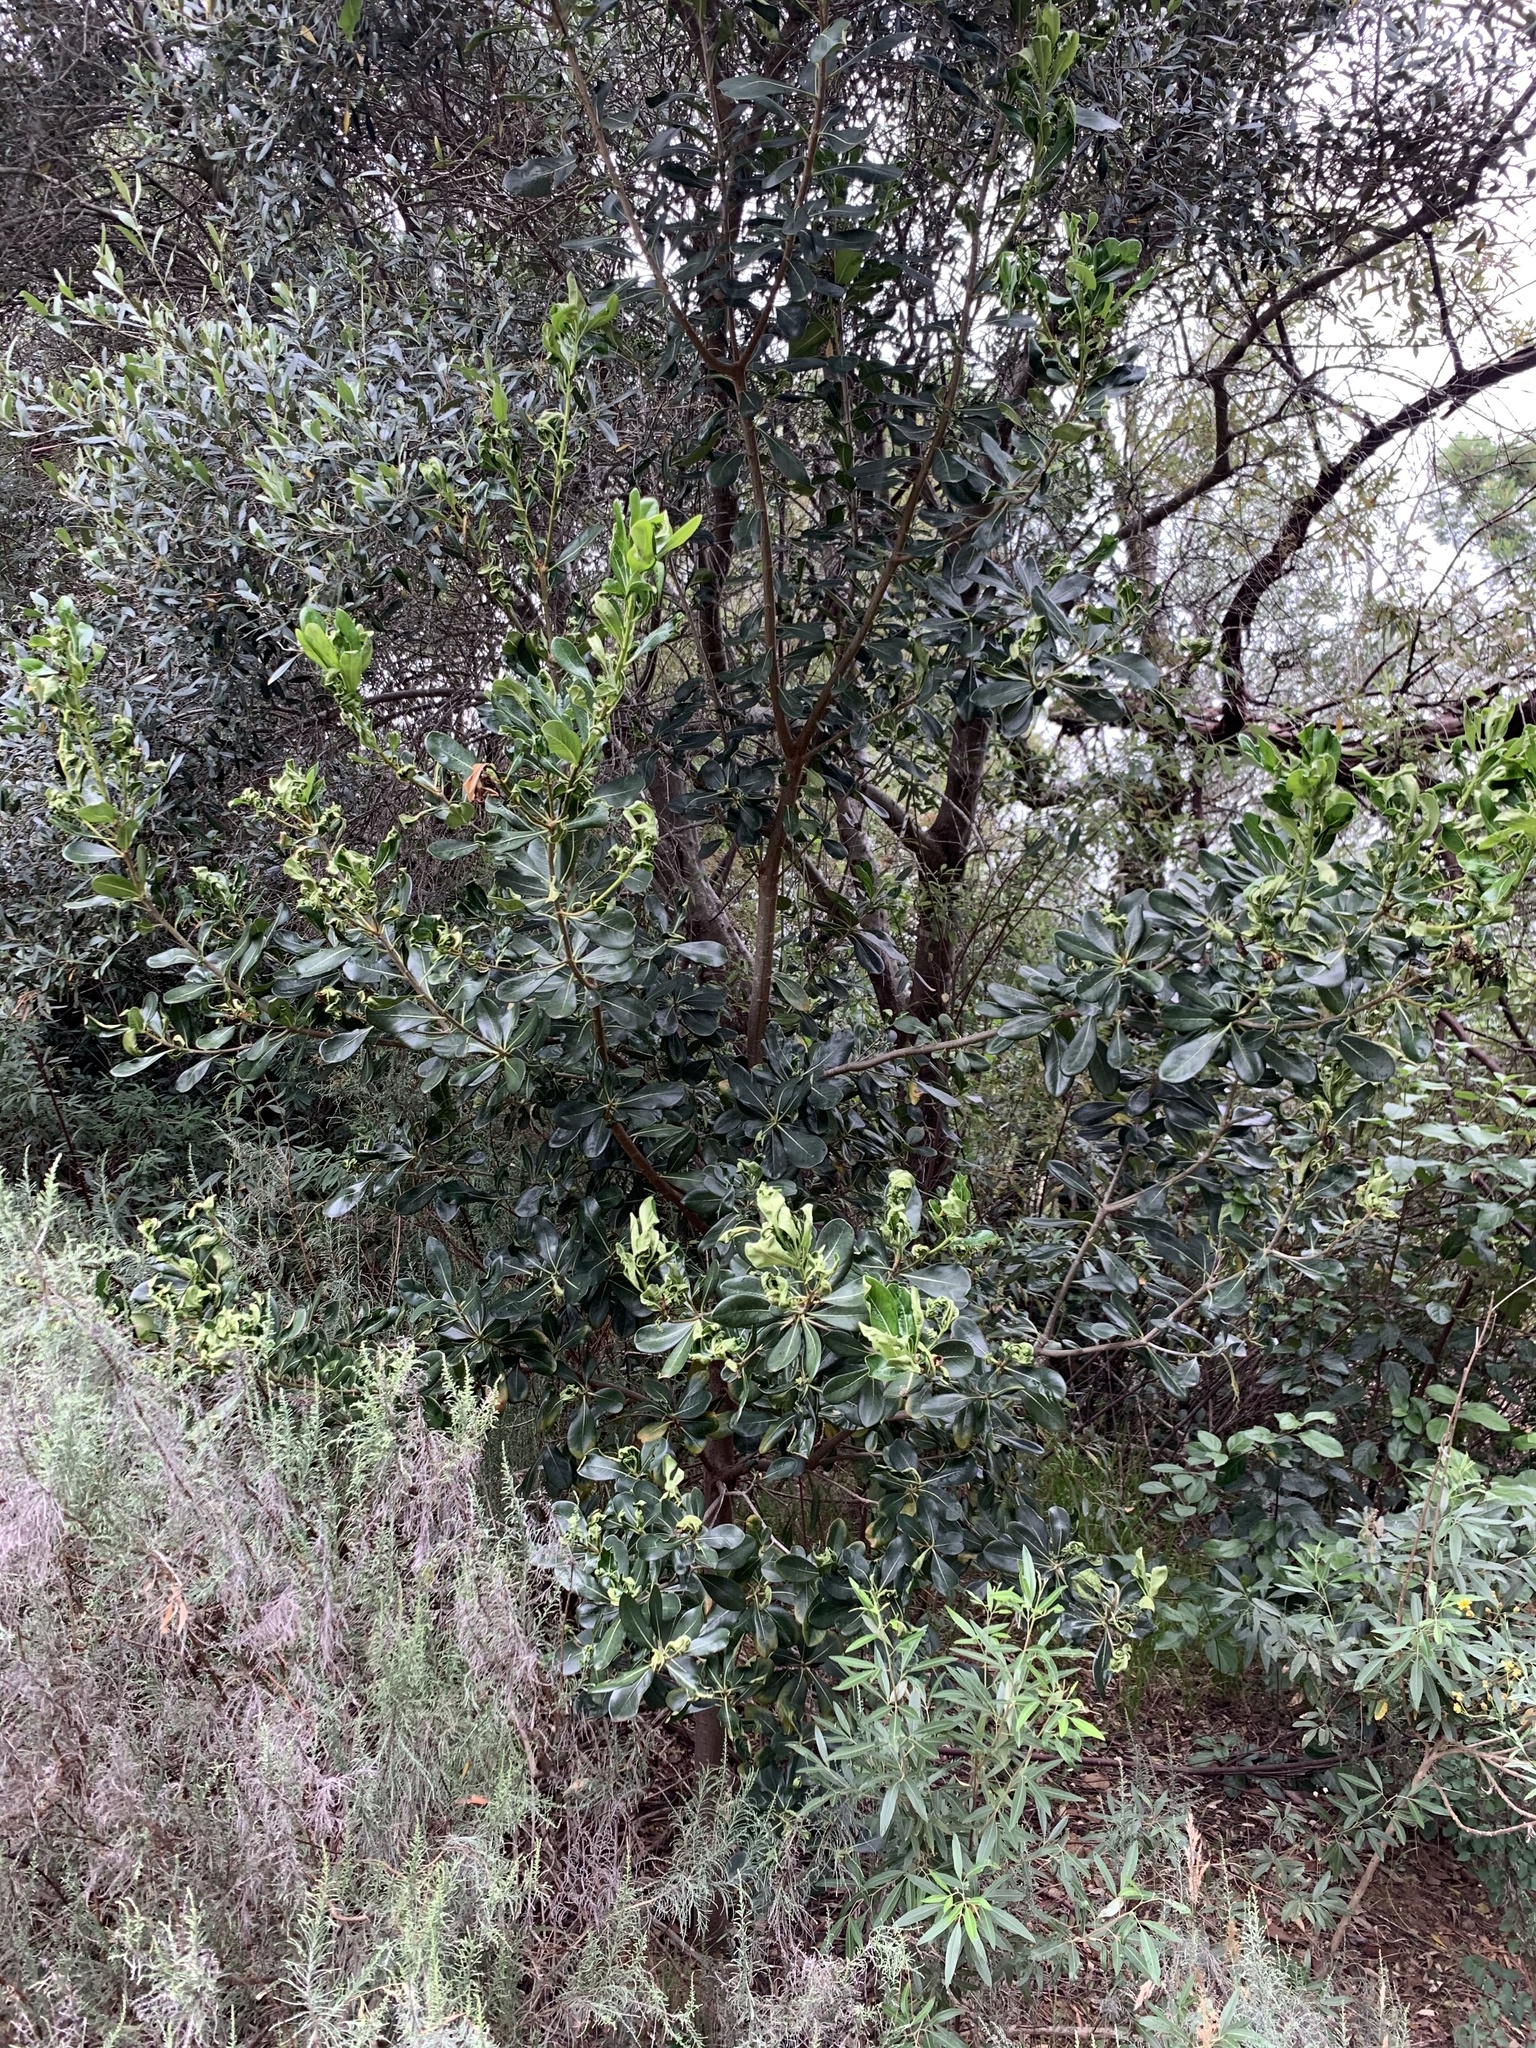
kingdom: Plantae
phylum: Tracheophyta
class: Magnoliopsida
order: Apiales
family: Pittosporaceae
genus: Pittosporum
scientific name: Pittosporum viridiflorum
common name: Cape cheesewood
